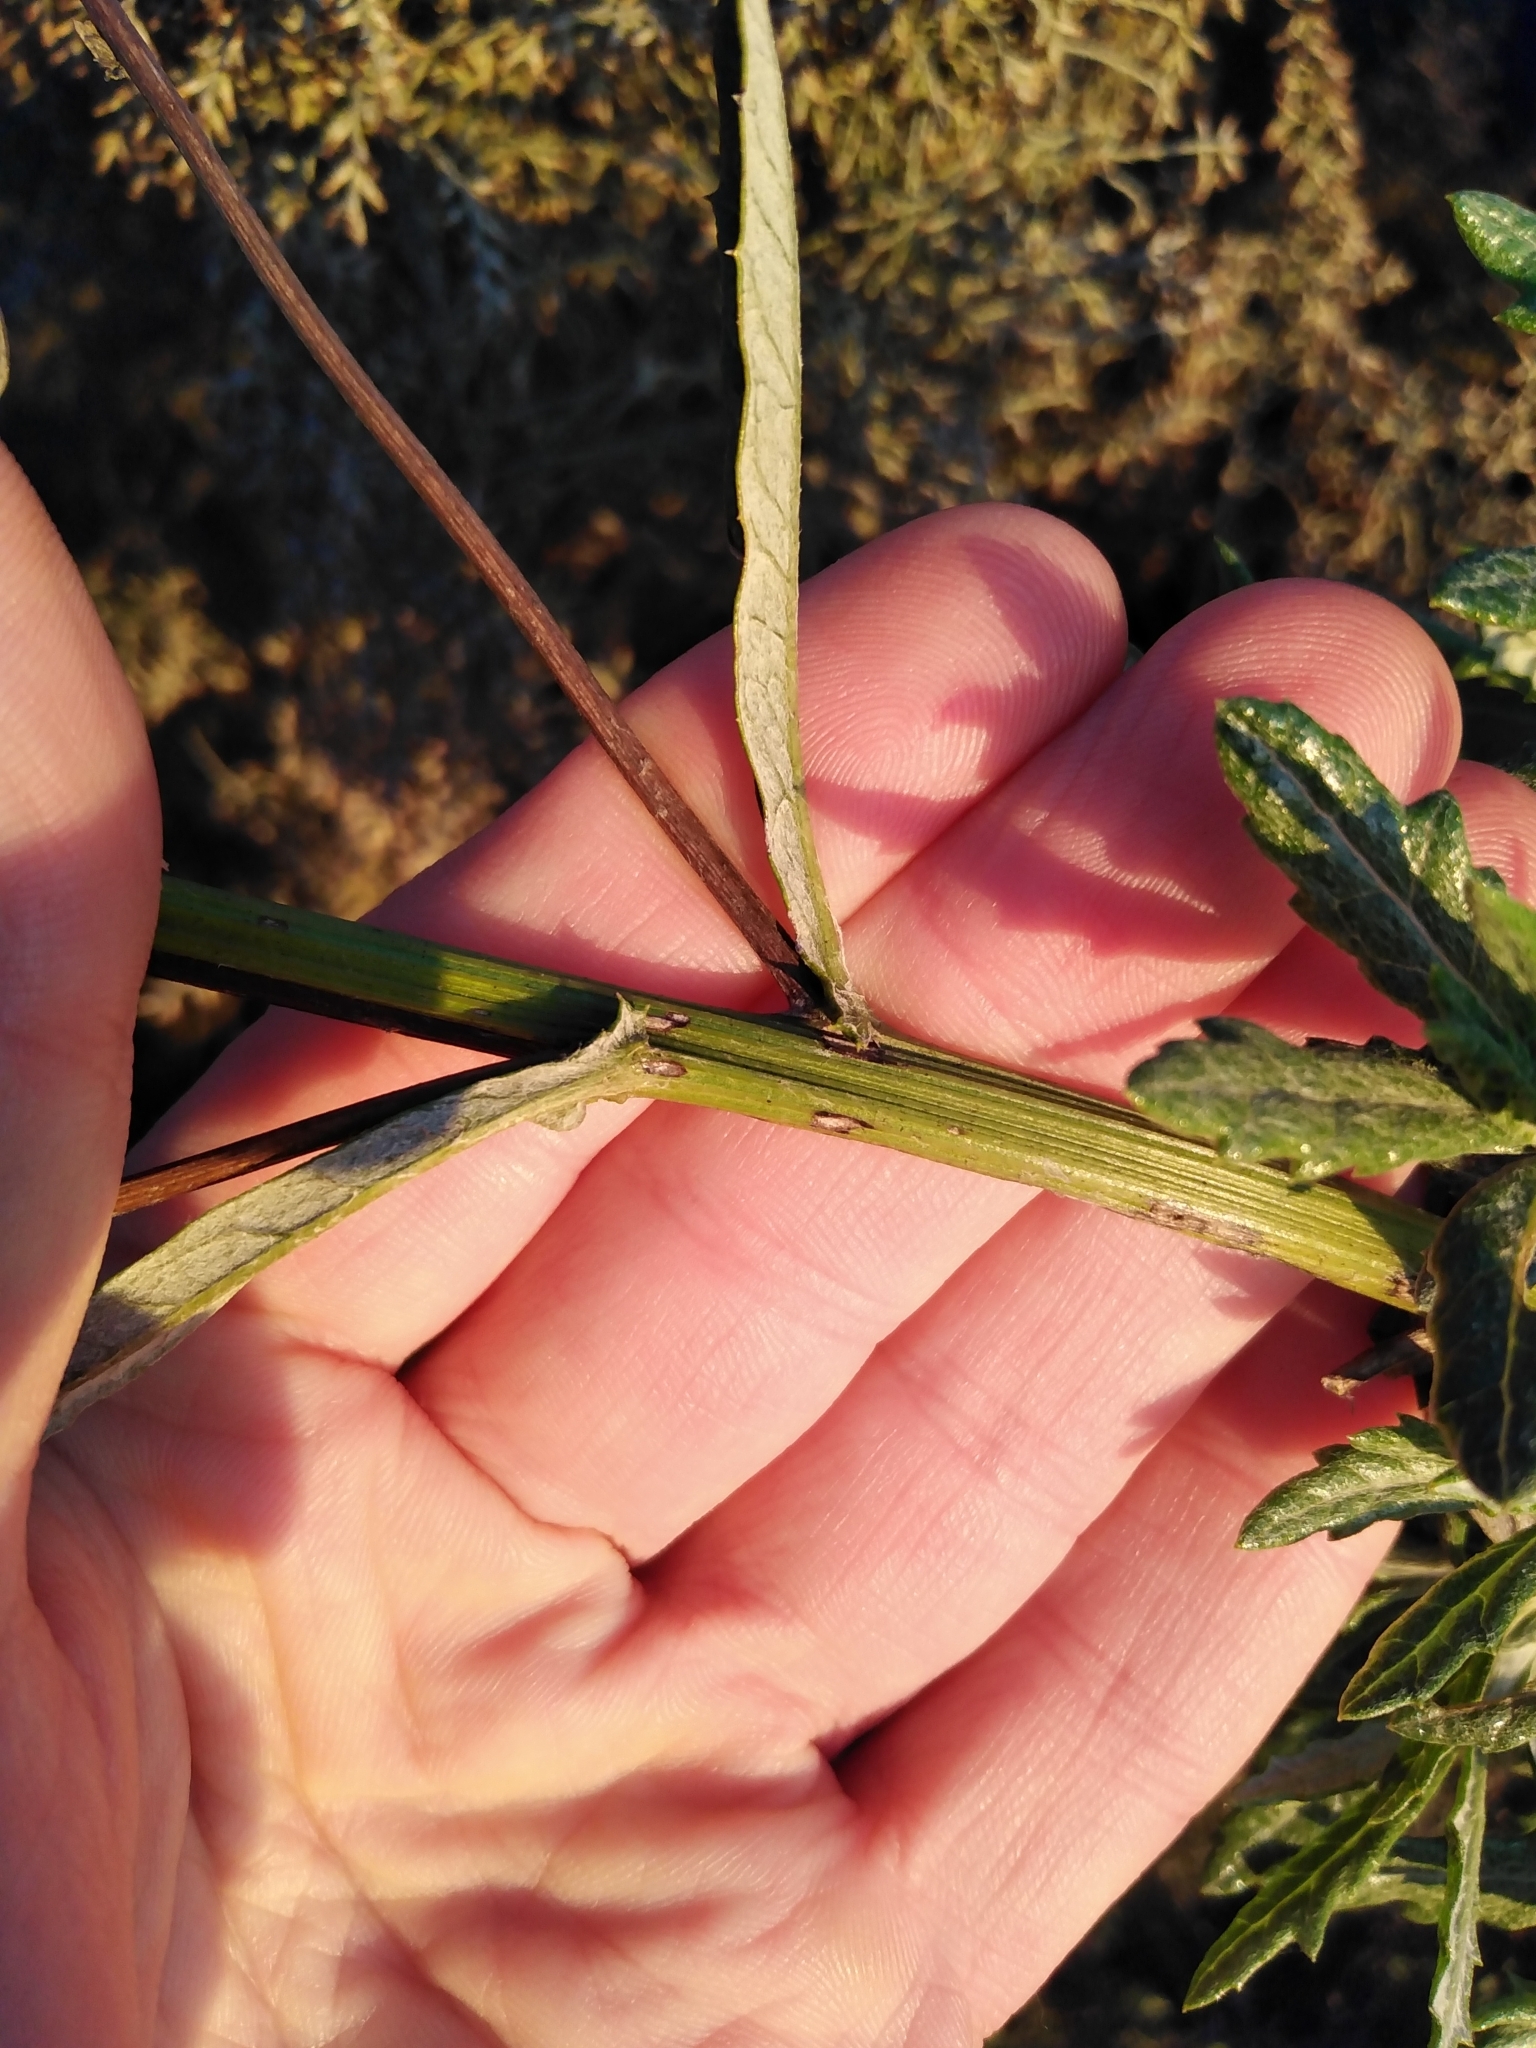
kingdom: Plantae
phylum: Tracheophyta
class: Magnoliopsida
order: Asterales
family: Asteraceae
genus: Senecio
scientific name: Senecio pterophorus
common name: Shoddy ragwort
